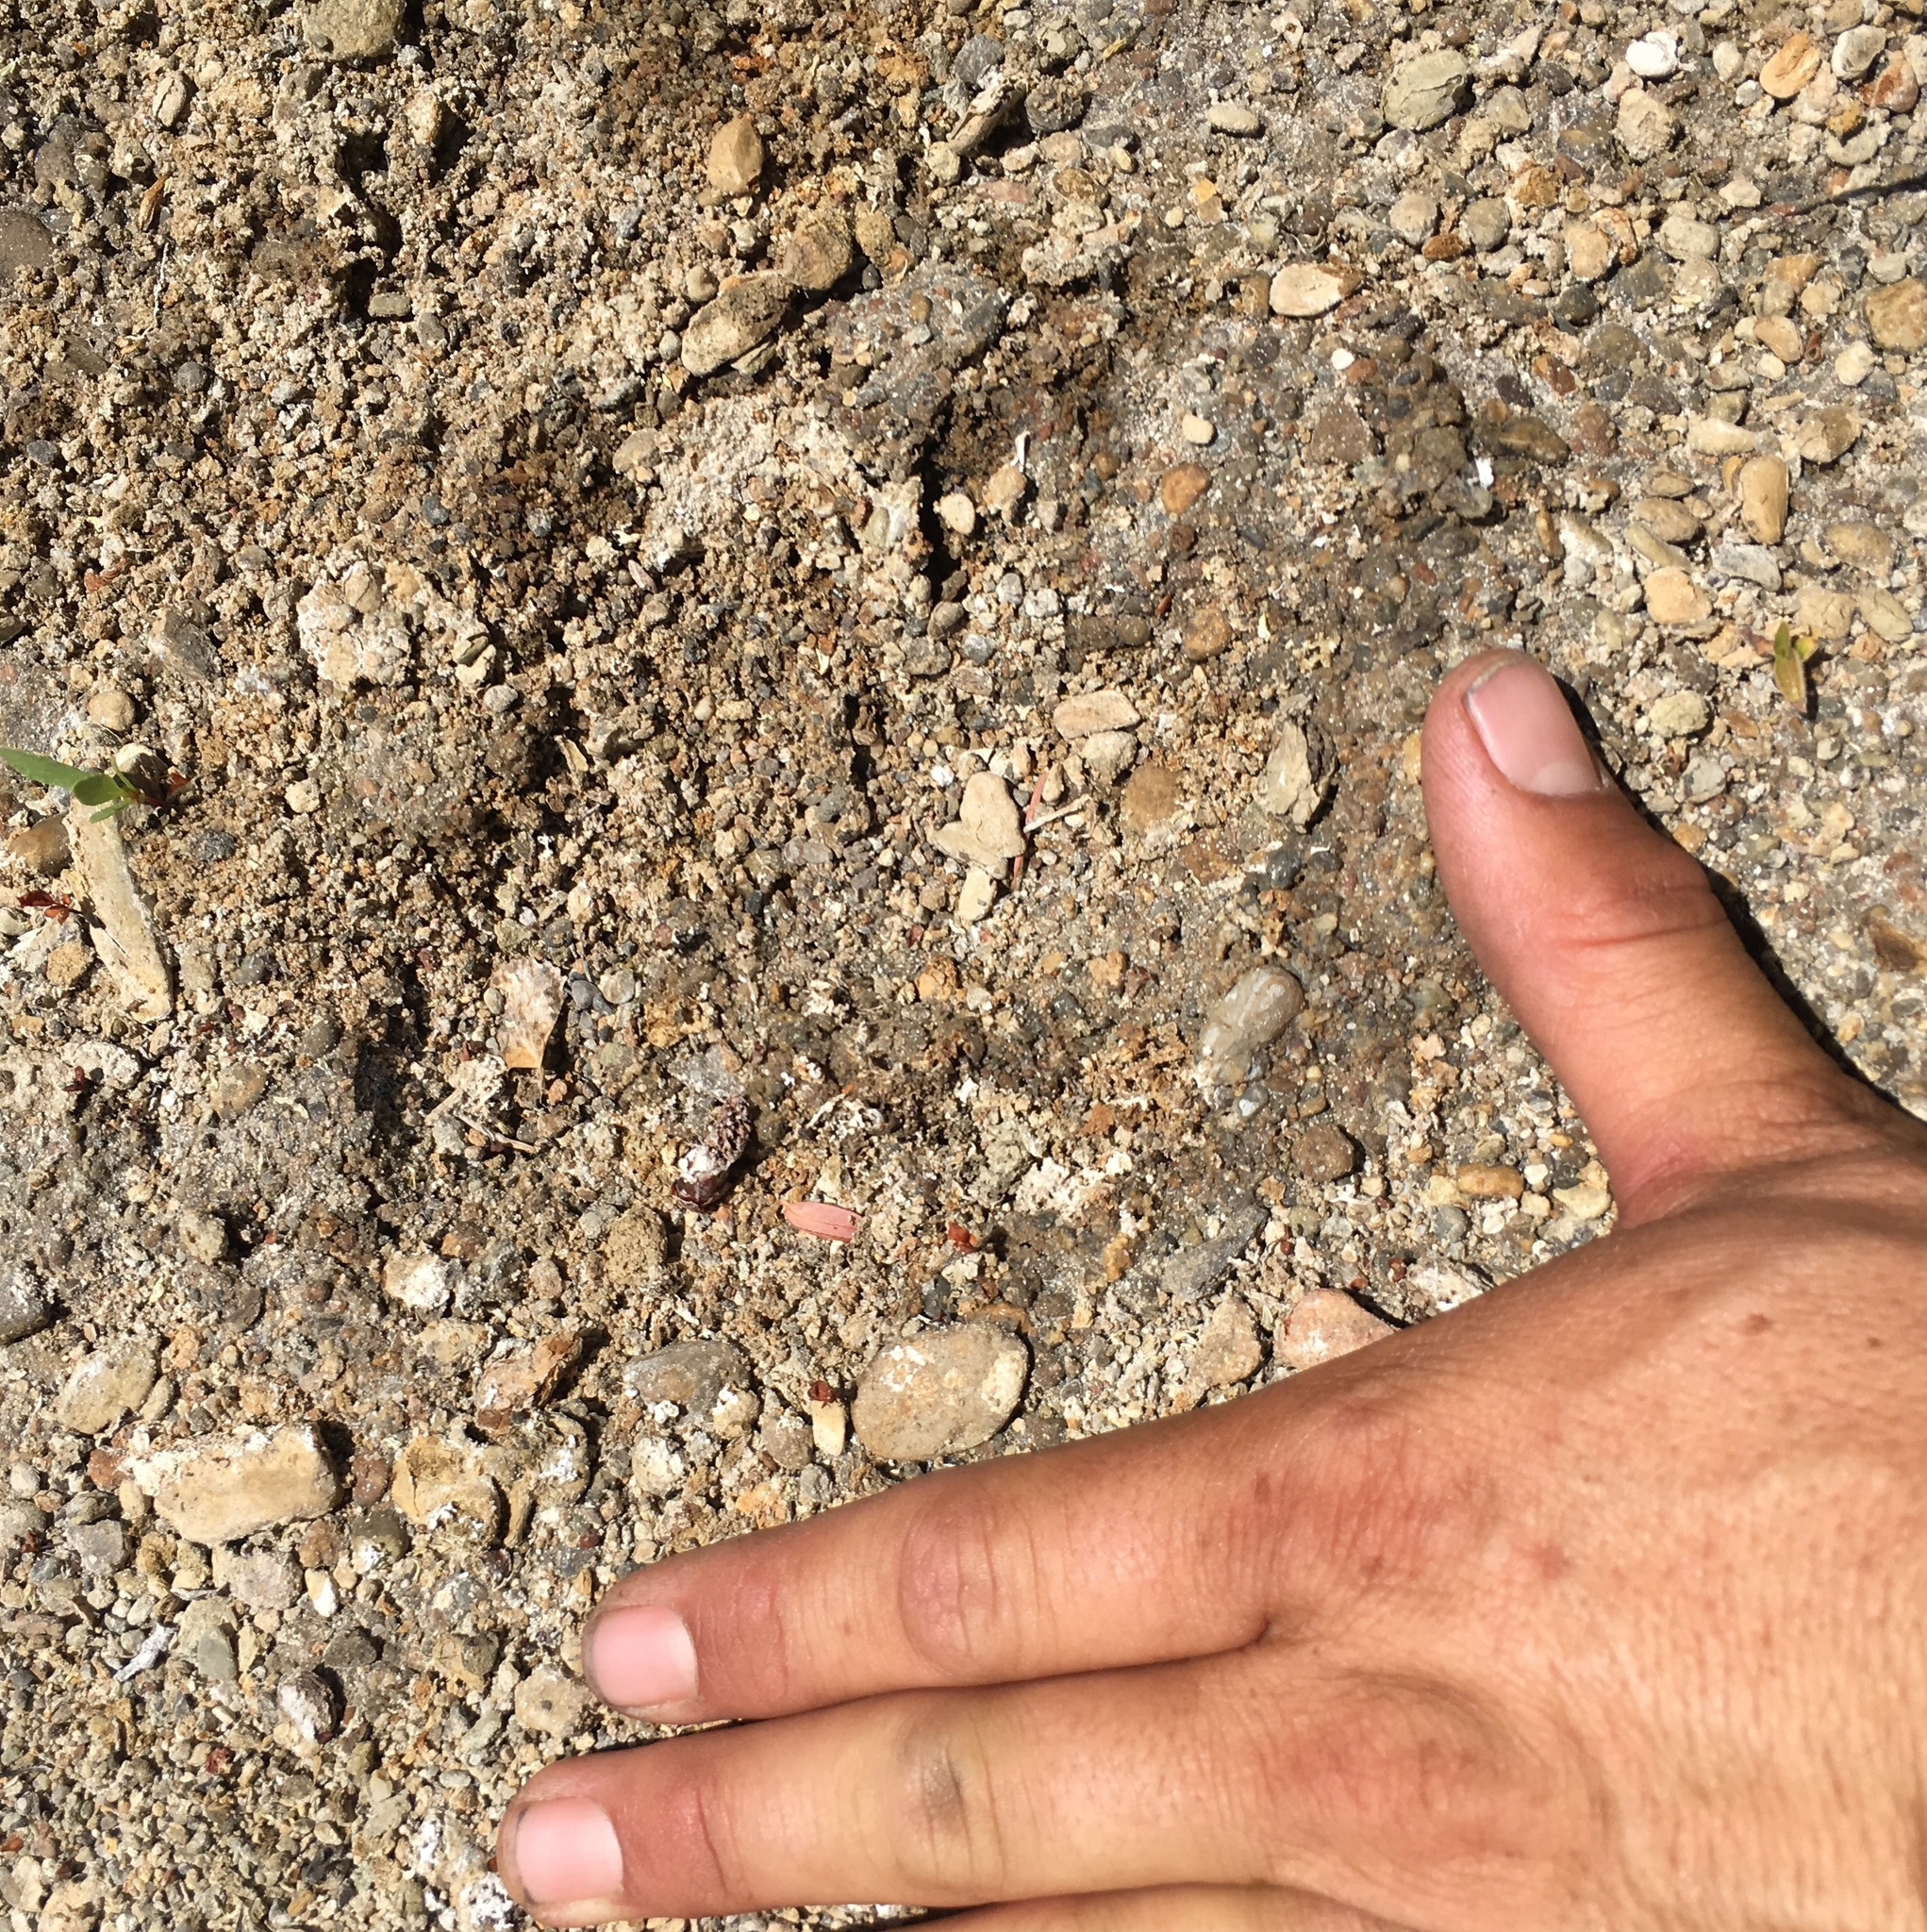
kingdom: Animalia
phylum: Chordata
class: Mammalia
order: Carnivora
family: Felidae
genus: Puma
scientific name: Puma concolor
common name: Puma
